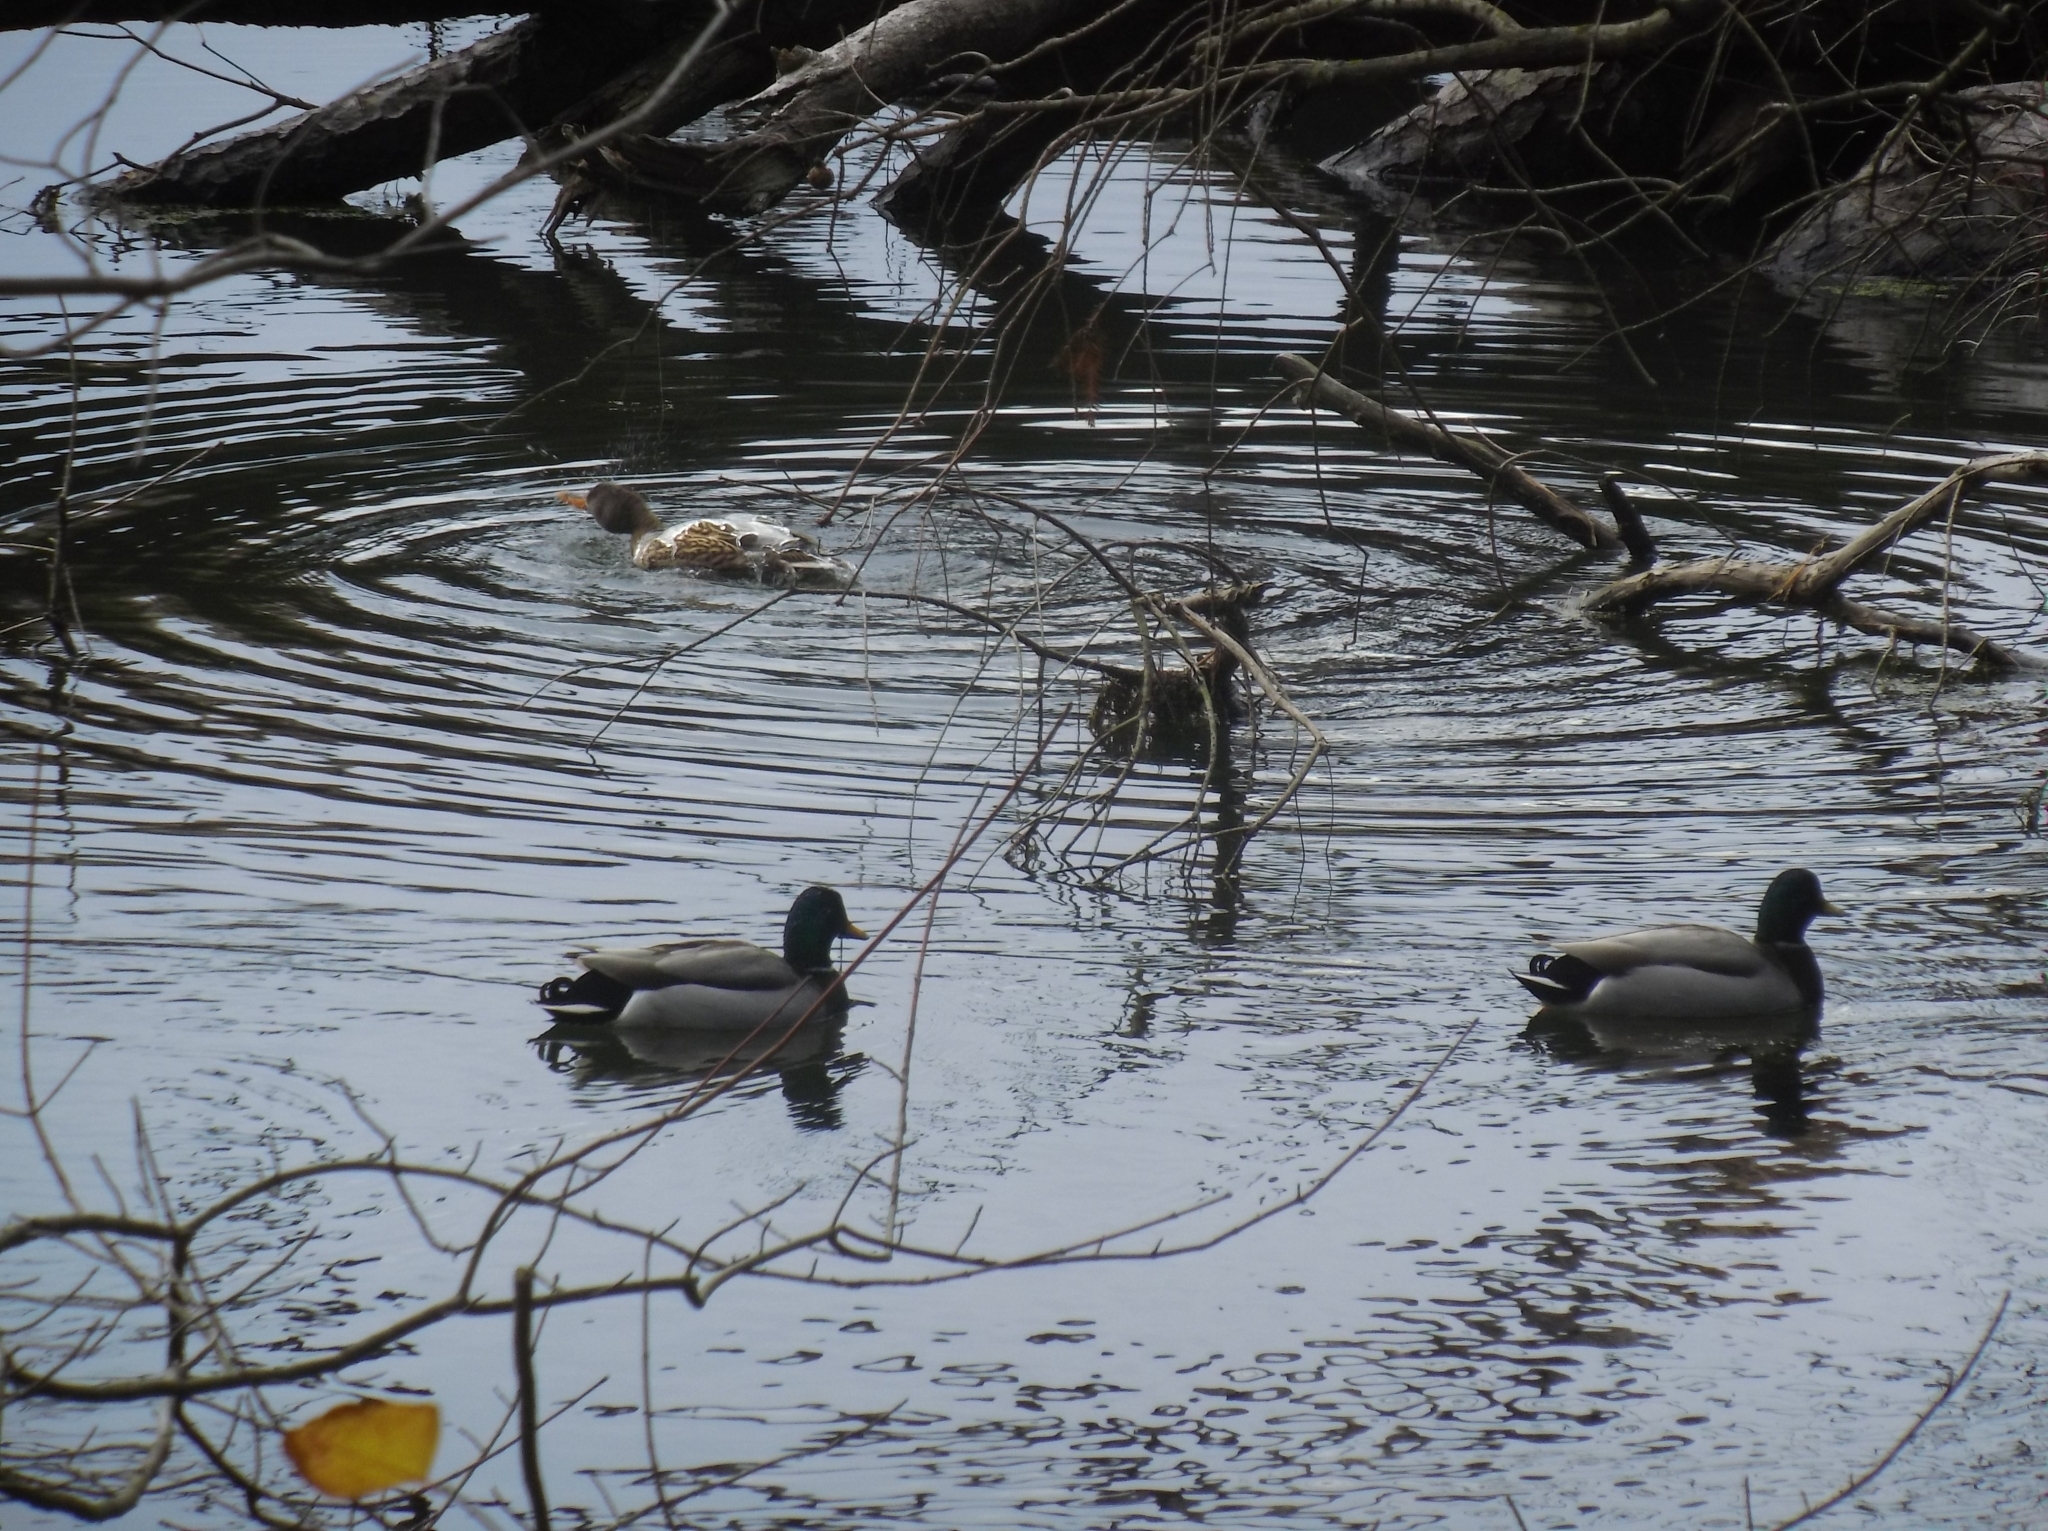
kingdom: Animalia
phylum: Chordata
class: Aves
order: Anseriformes
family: Anatidae
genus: Anas
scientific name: Anas platyrhynchos
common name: Mallard
